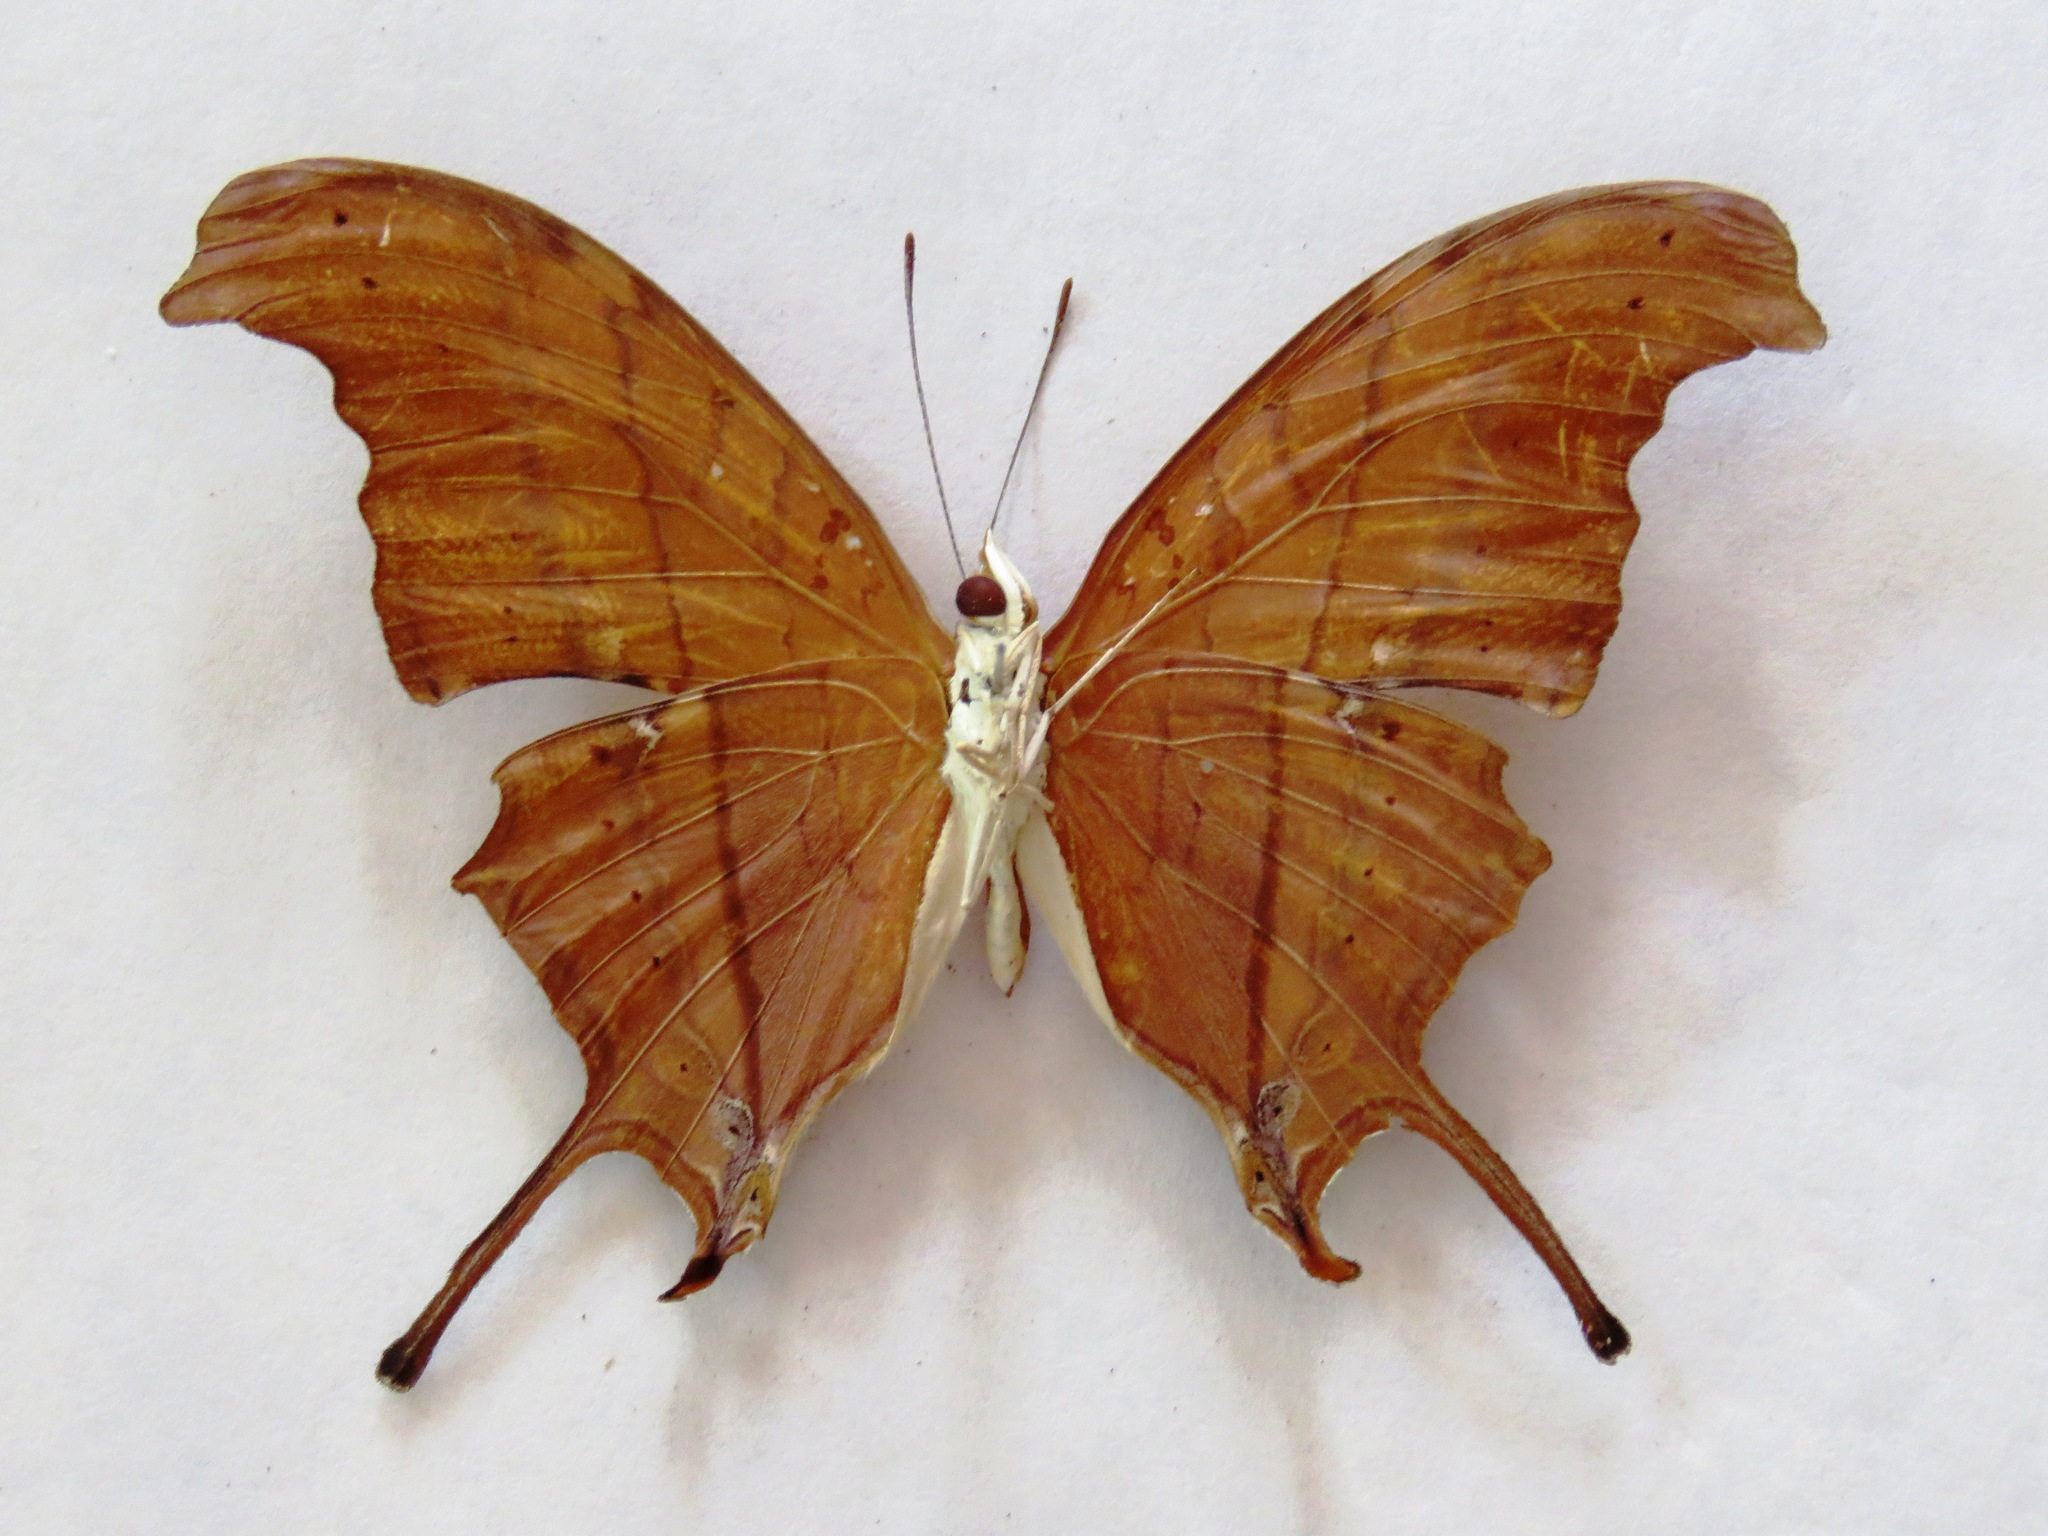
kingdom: Animalia
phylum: Arthropoda
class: Insecta
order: Lepidoptera
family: Nymphalidae
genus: Marpesia
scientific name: Marpesia petreus
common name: Red dagger wing
